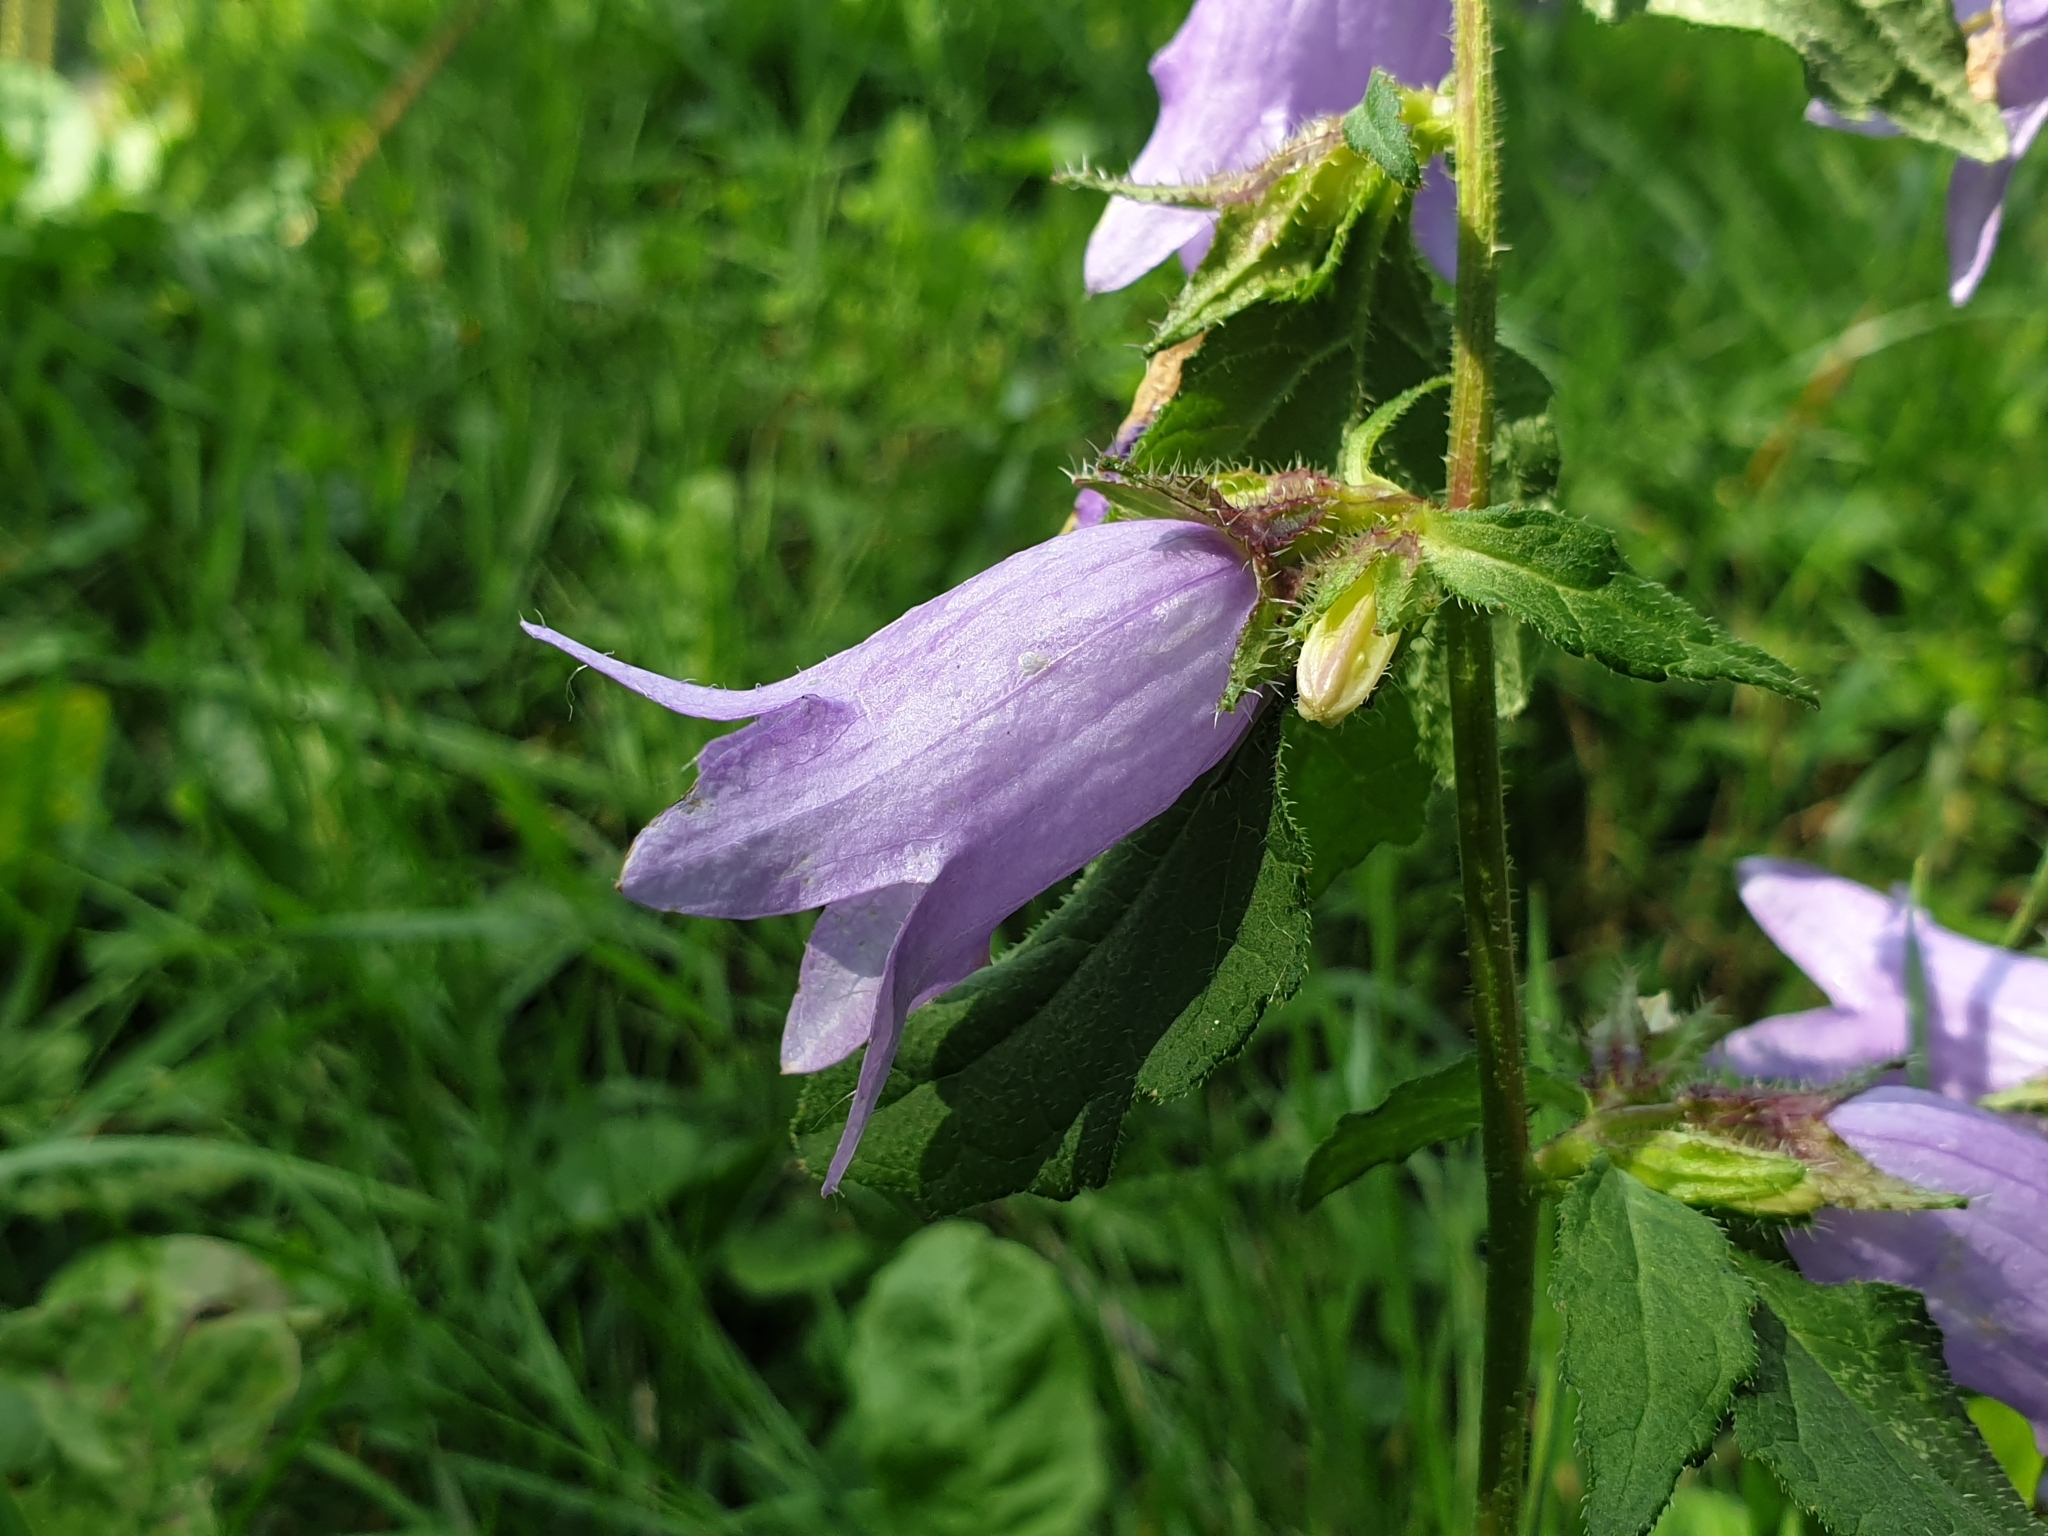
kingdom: Plantae
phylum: Tracheophyta
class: Magnoliopsida
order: Asterales
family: Campanulaceae
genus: Campanula
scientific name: Campanula trachelium
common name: Nettle-leaved bellflower
